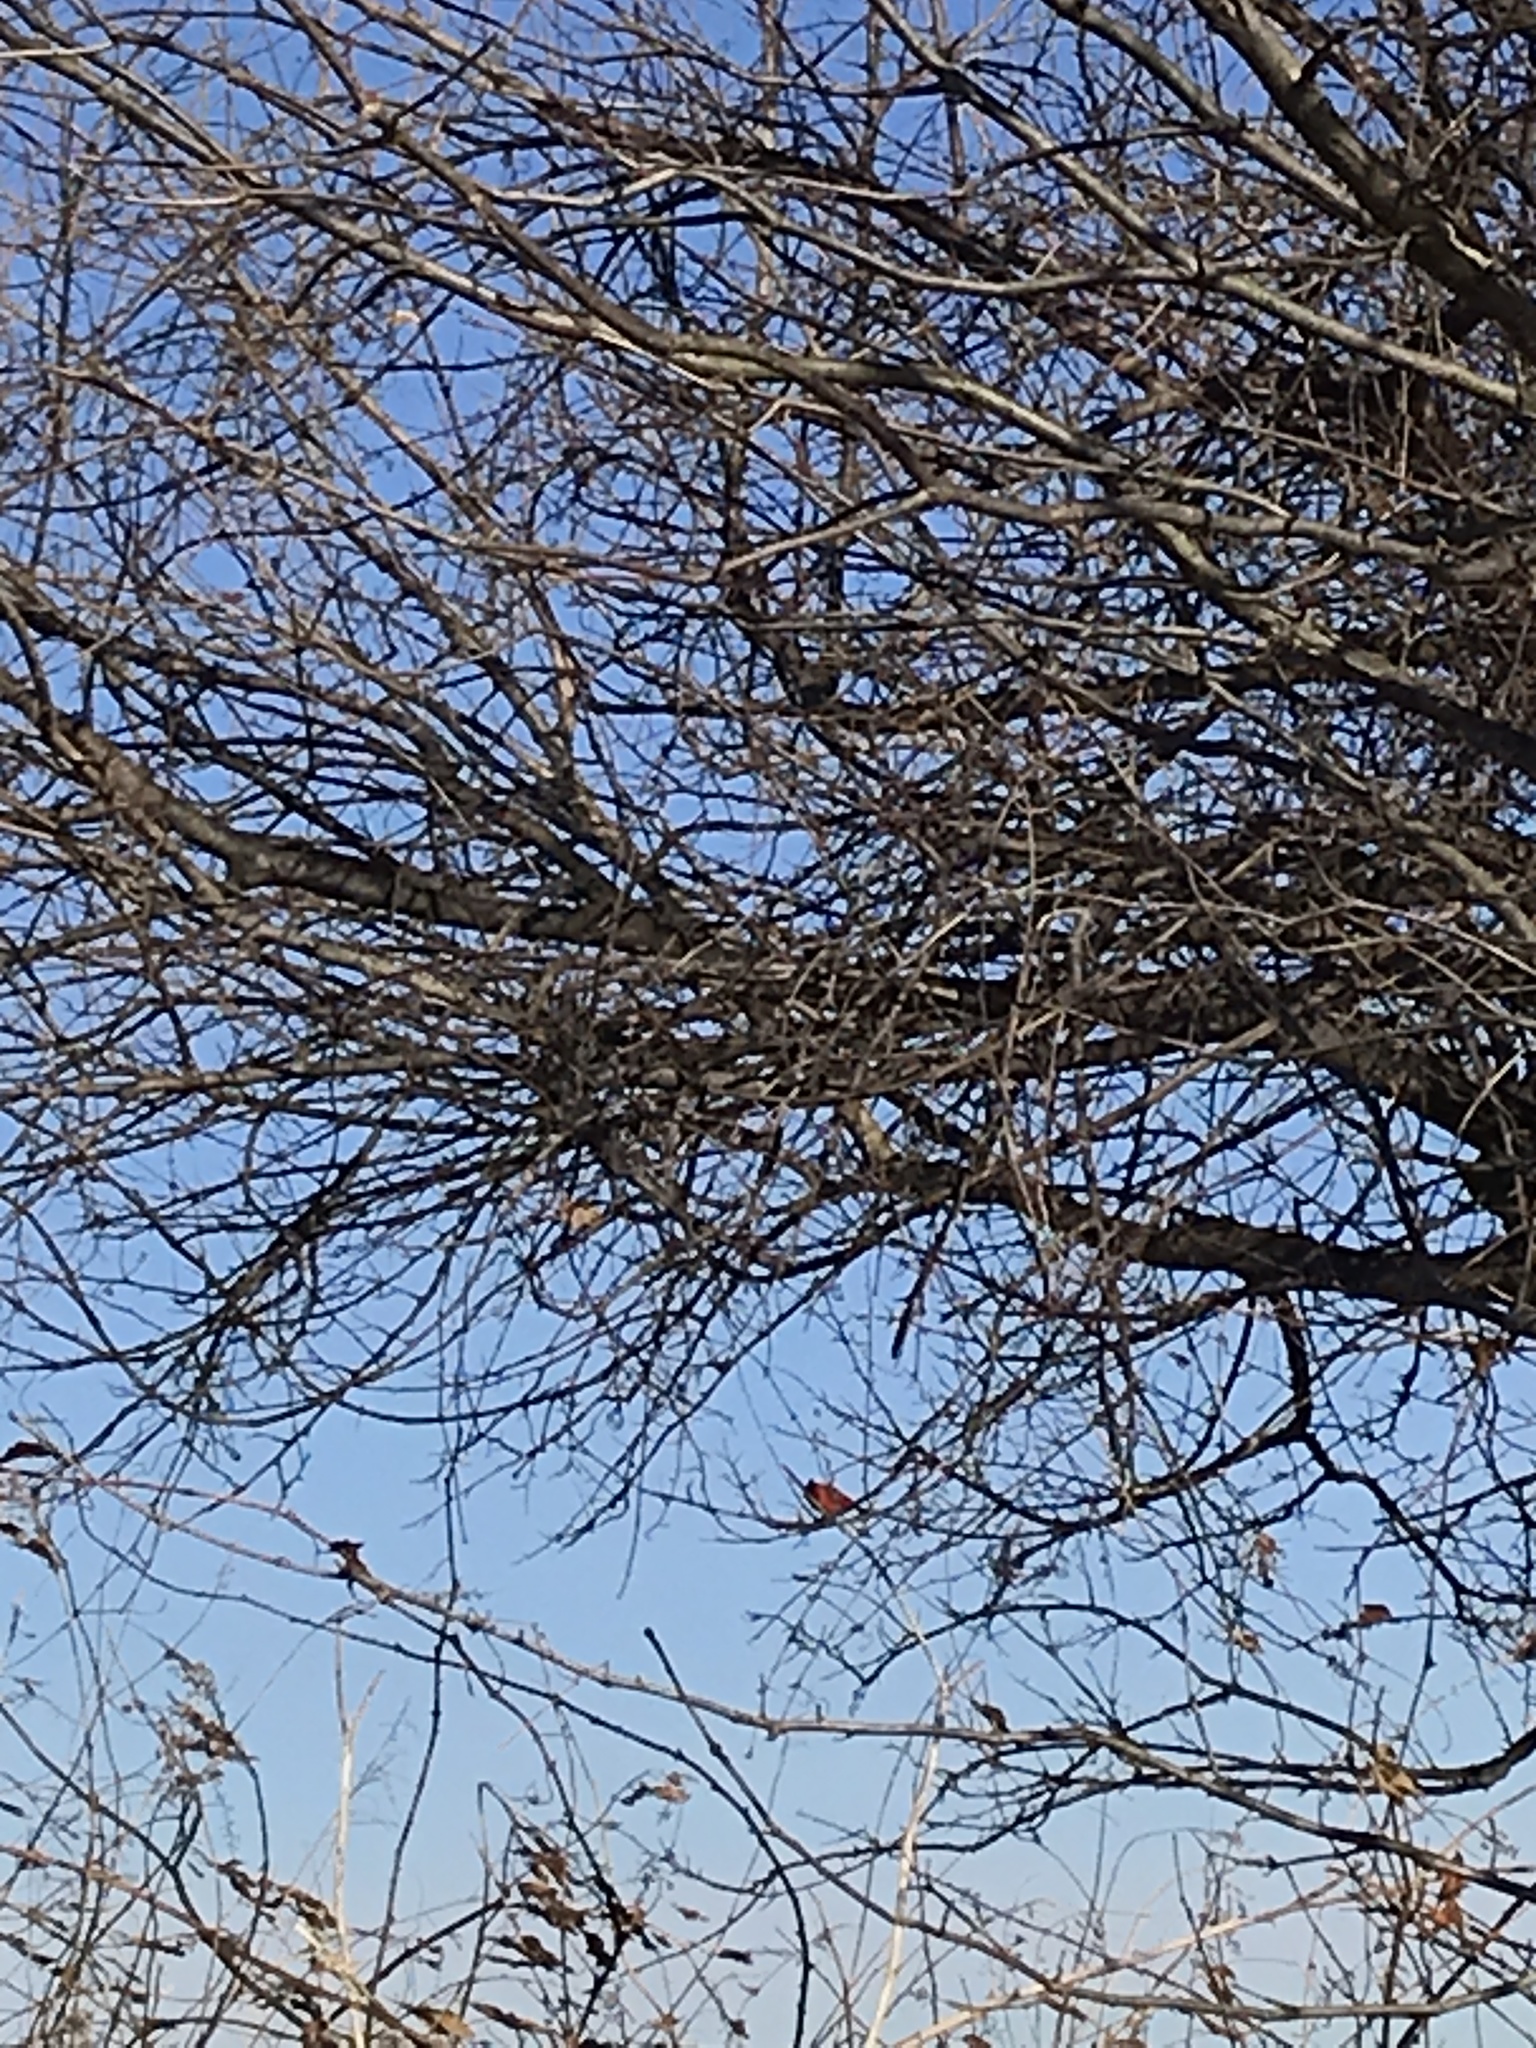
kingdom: Animalia
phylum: Chordata
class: Aves
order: Passeriformes
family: Cardinalidae
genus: Cardinalis
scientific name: Cardinalis cardinalis
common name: Northern cardinal
